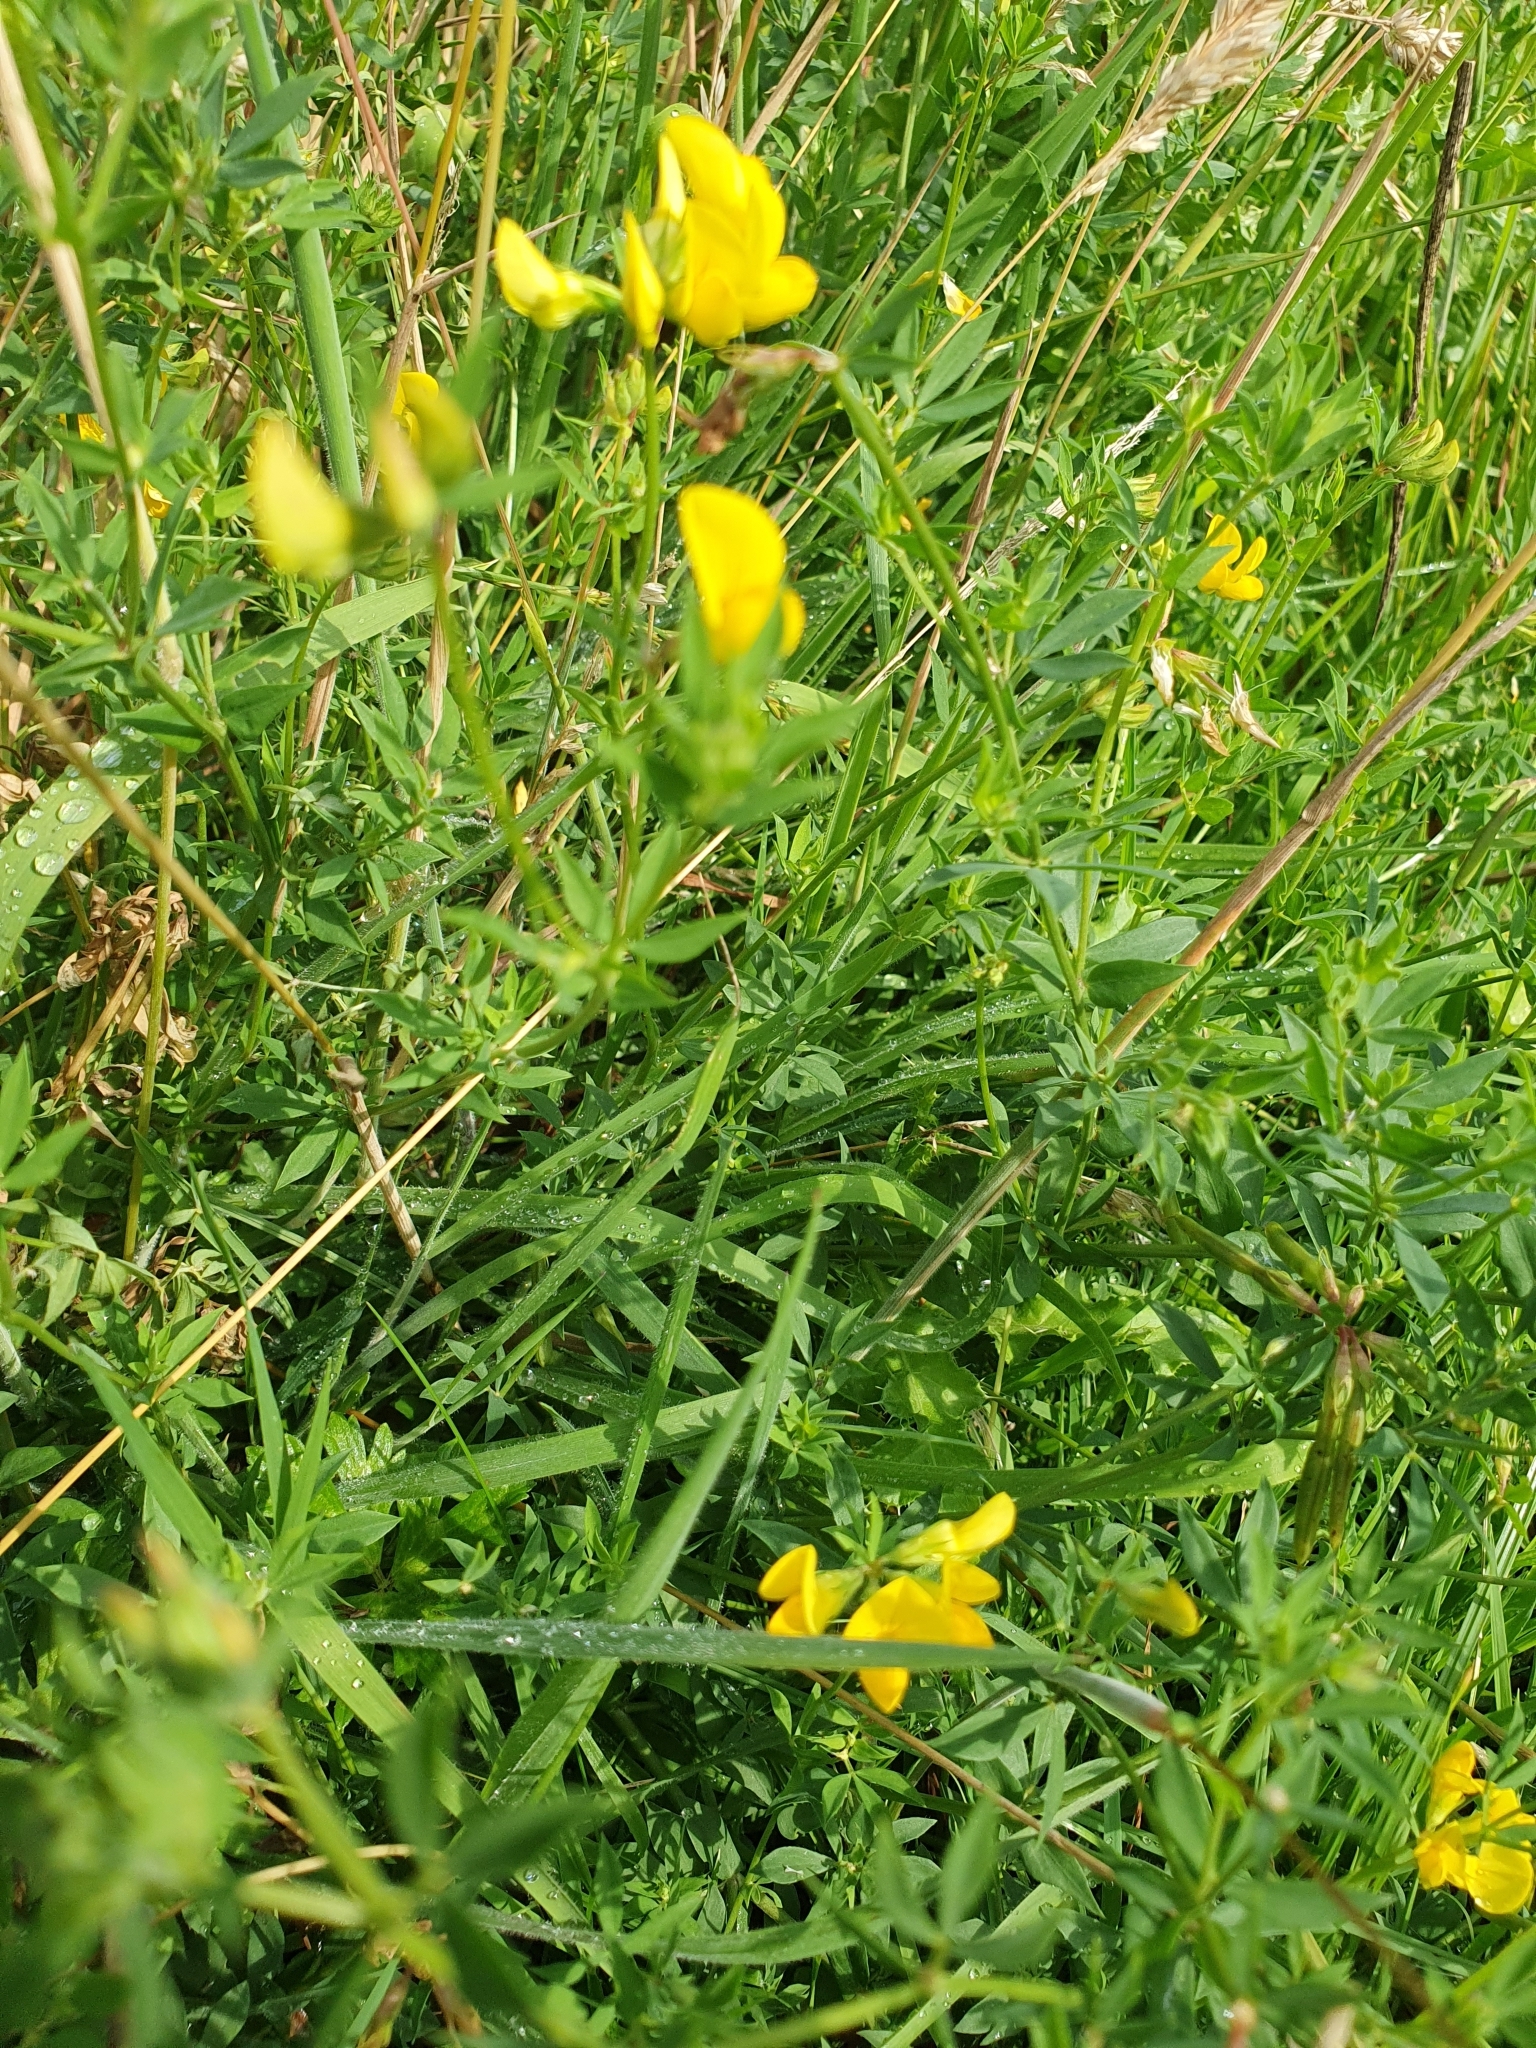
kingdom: Plantae
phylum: Tracheophyta
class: Magnoliopsida
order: Fabales
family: Fabaceae
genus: Lotus
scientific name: Lotus corniculatus
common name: Common bird's-foot-trefoil
